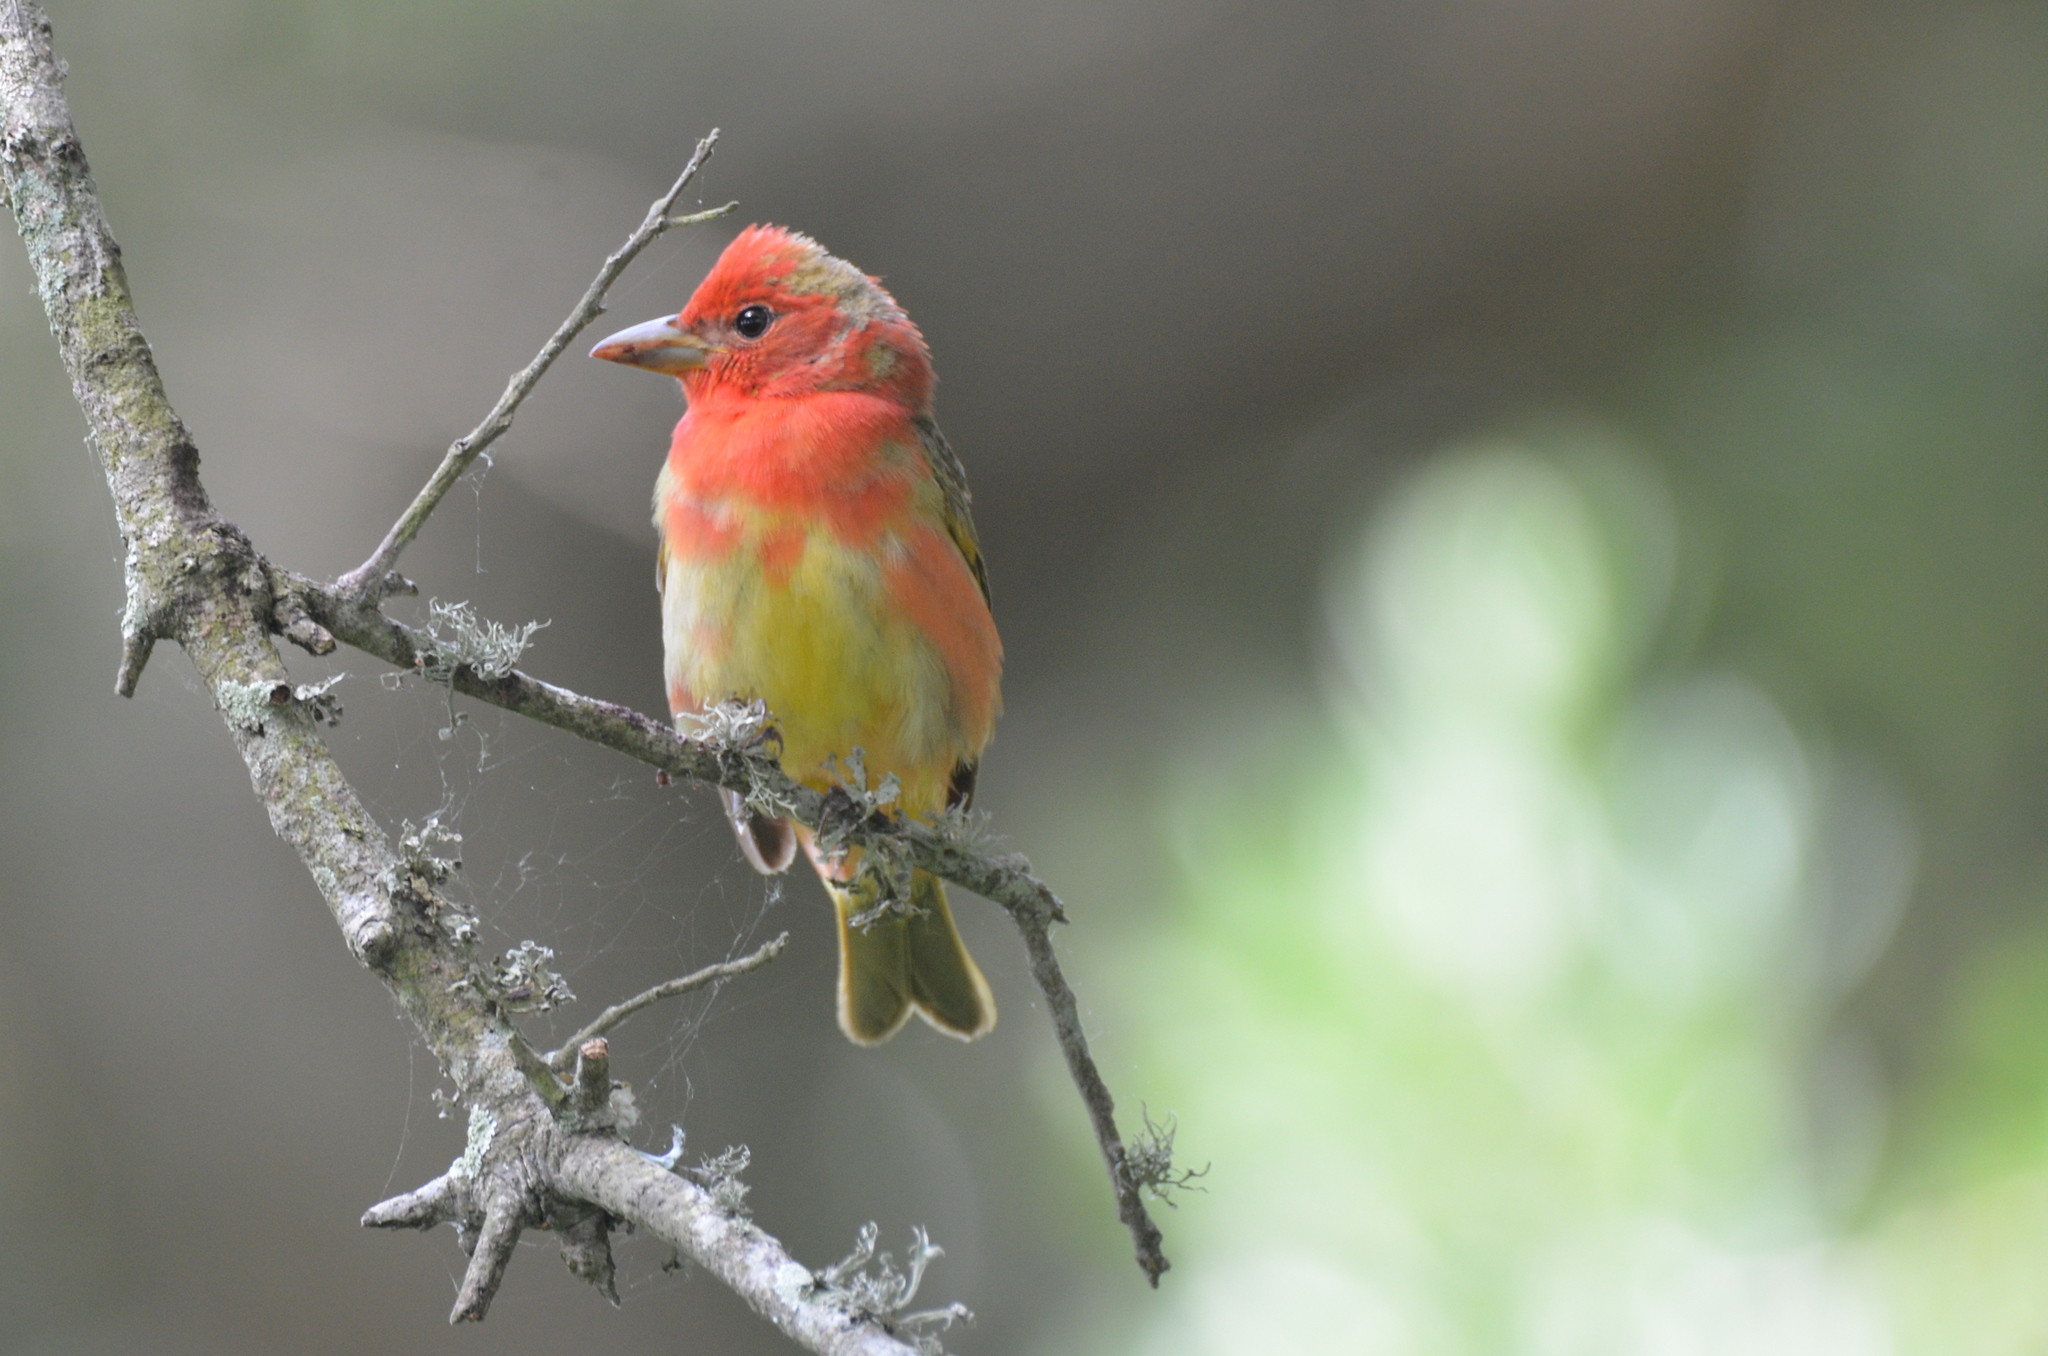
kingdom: Animalia
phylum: Chordata
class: Aves
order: Passeriformes
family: Cardinalidae
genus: Piranga
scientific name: Piranga rubra
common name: Summer tanager
